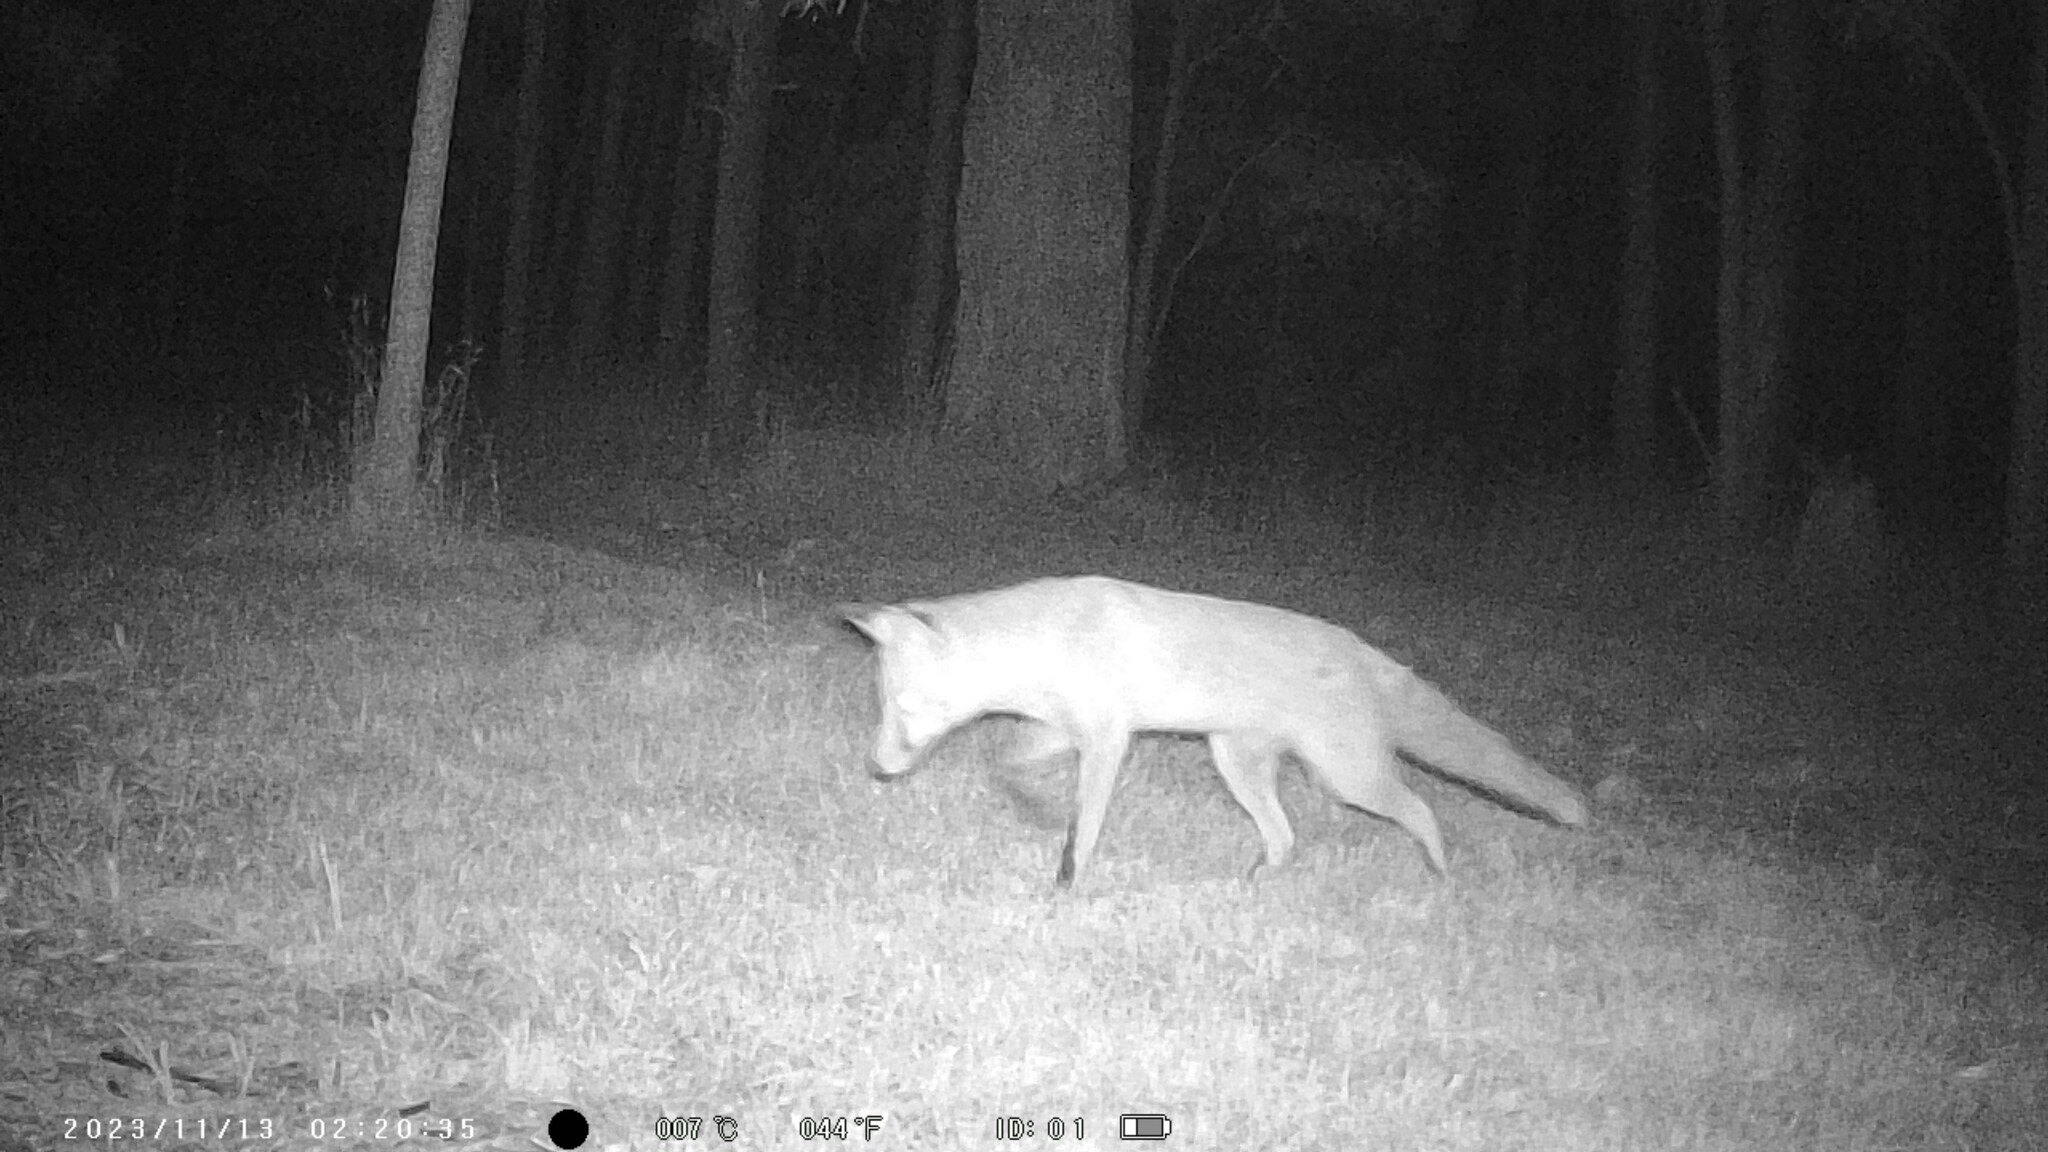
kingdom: Animalia
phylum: Chordata
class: Mammalia
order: Carnivora
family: Canidae
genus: Vulpes
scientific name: Vulpes vulpes
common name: Red fox
